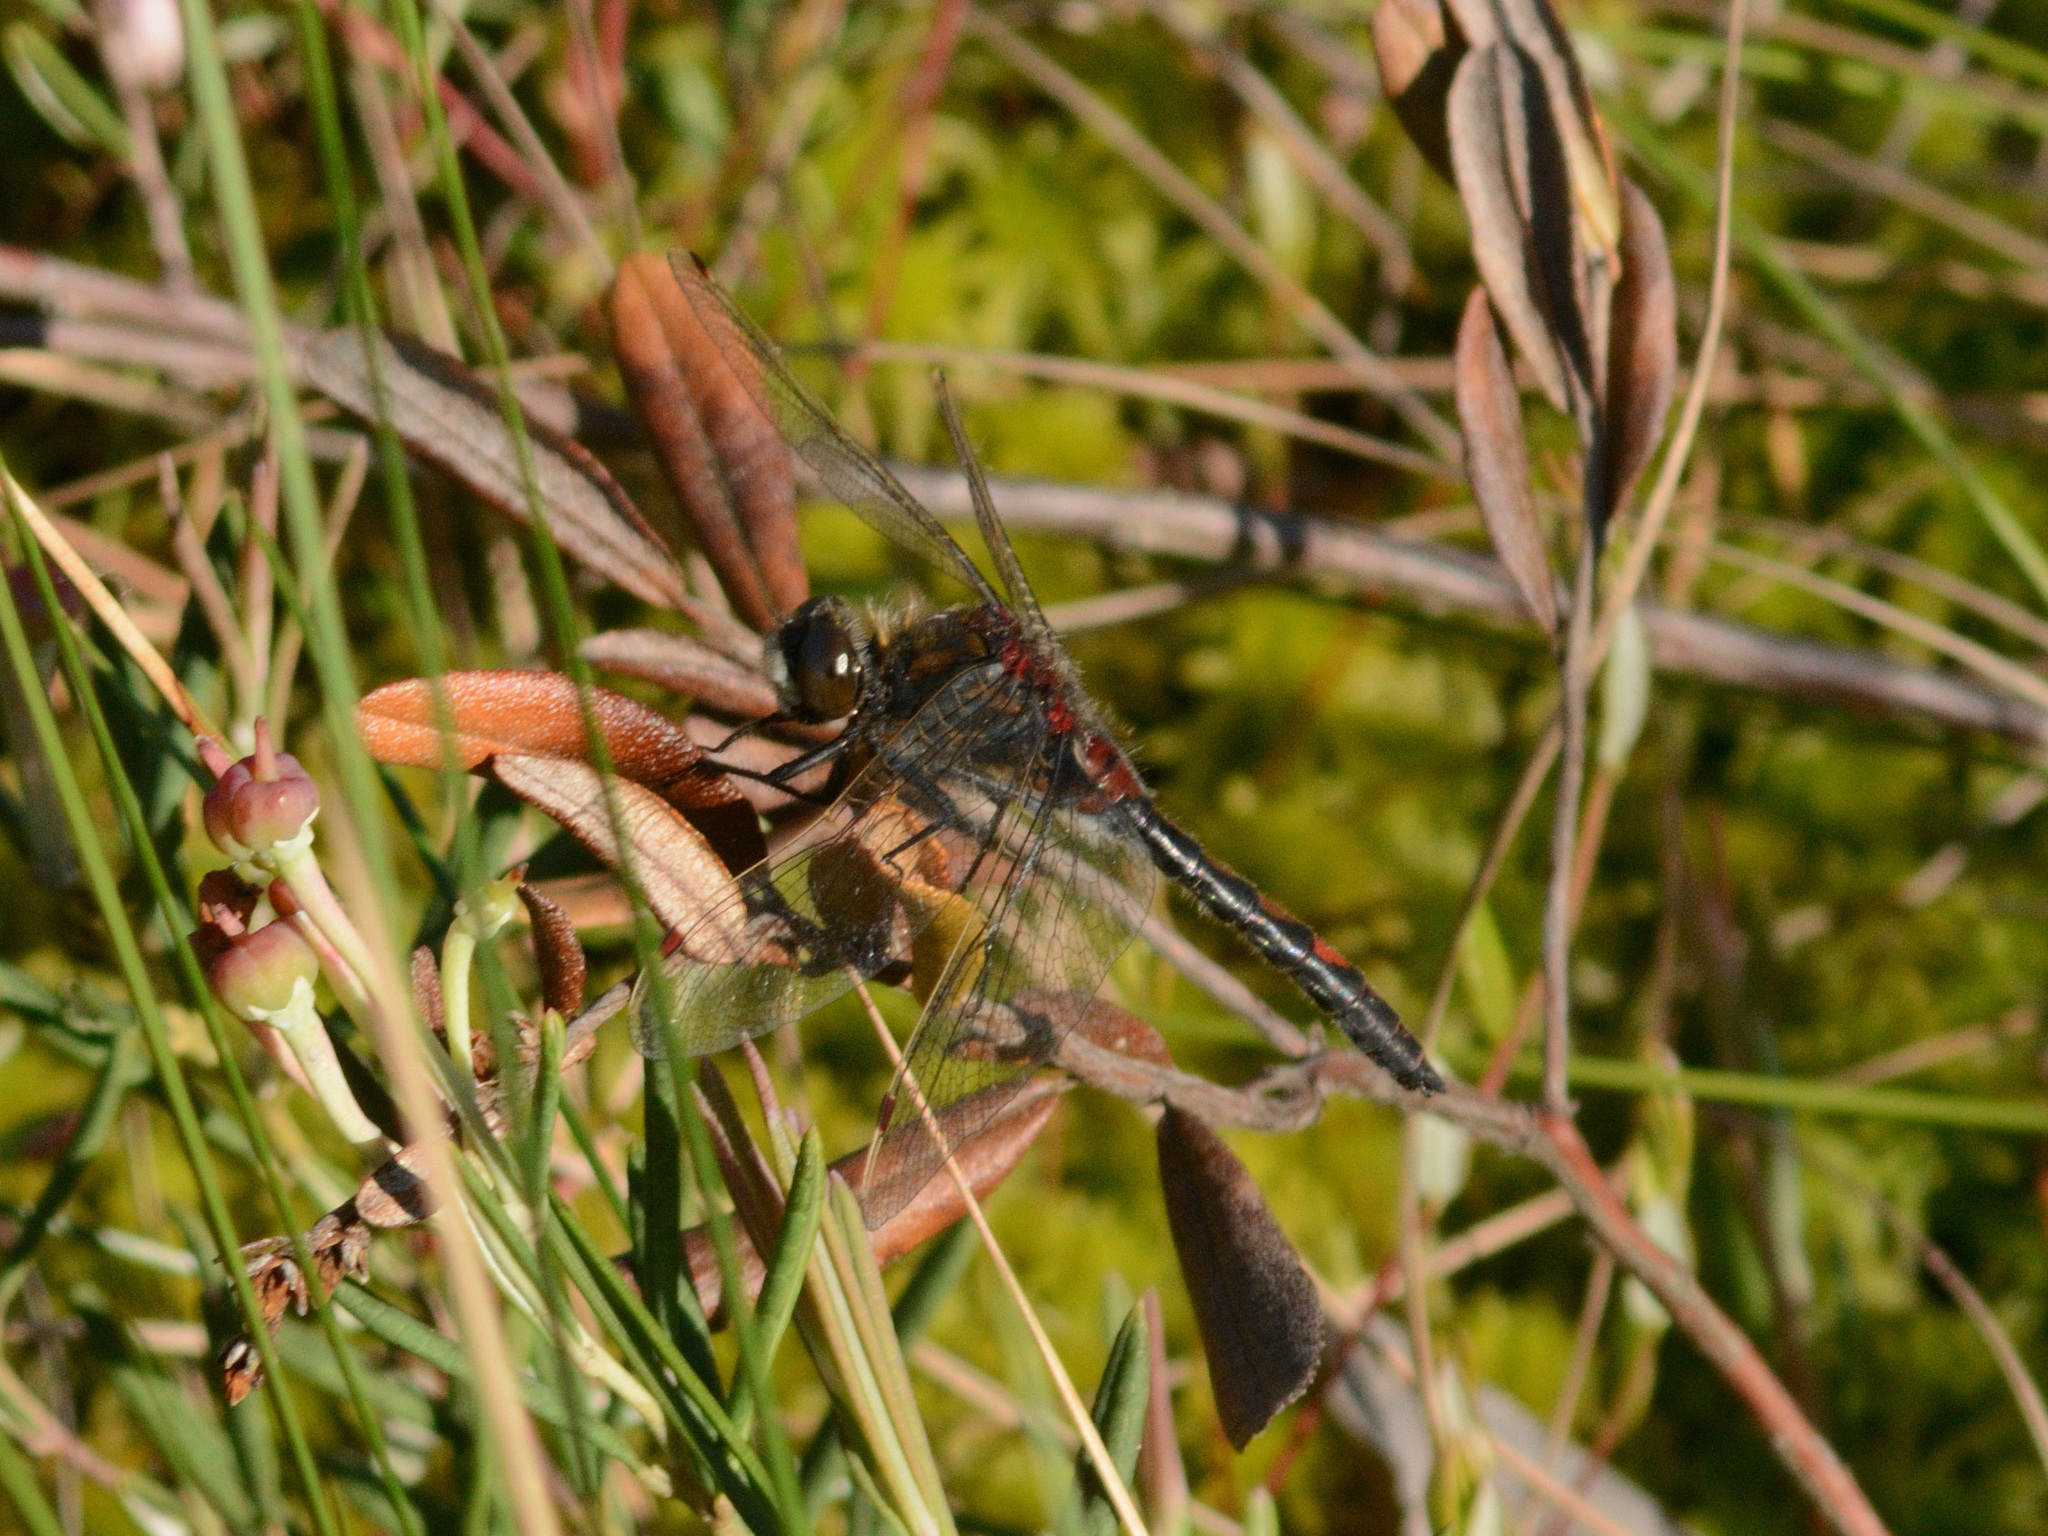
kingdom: Animalia
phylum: Arthropoda
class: Insecta
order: Odonata
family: Libellulidae
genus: Leucorrhinia
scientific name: Leucorrhinia rubicunda
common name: Ruby whiteface
